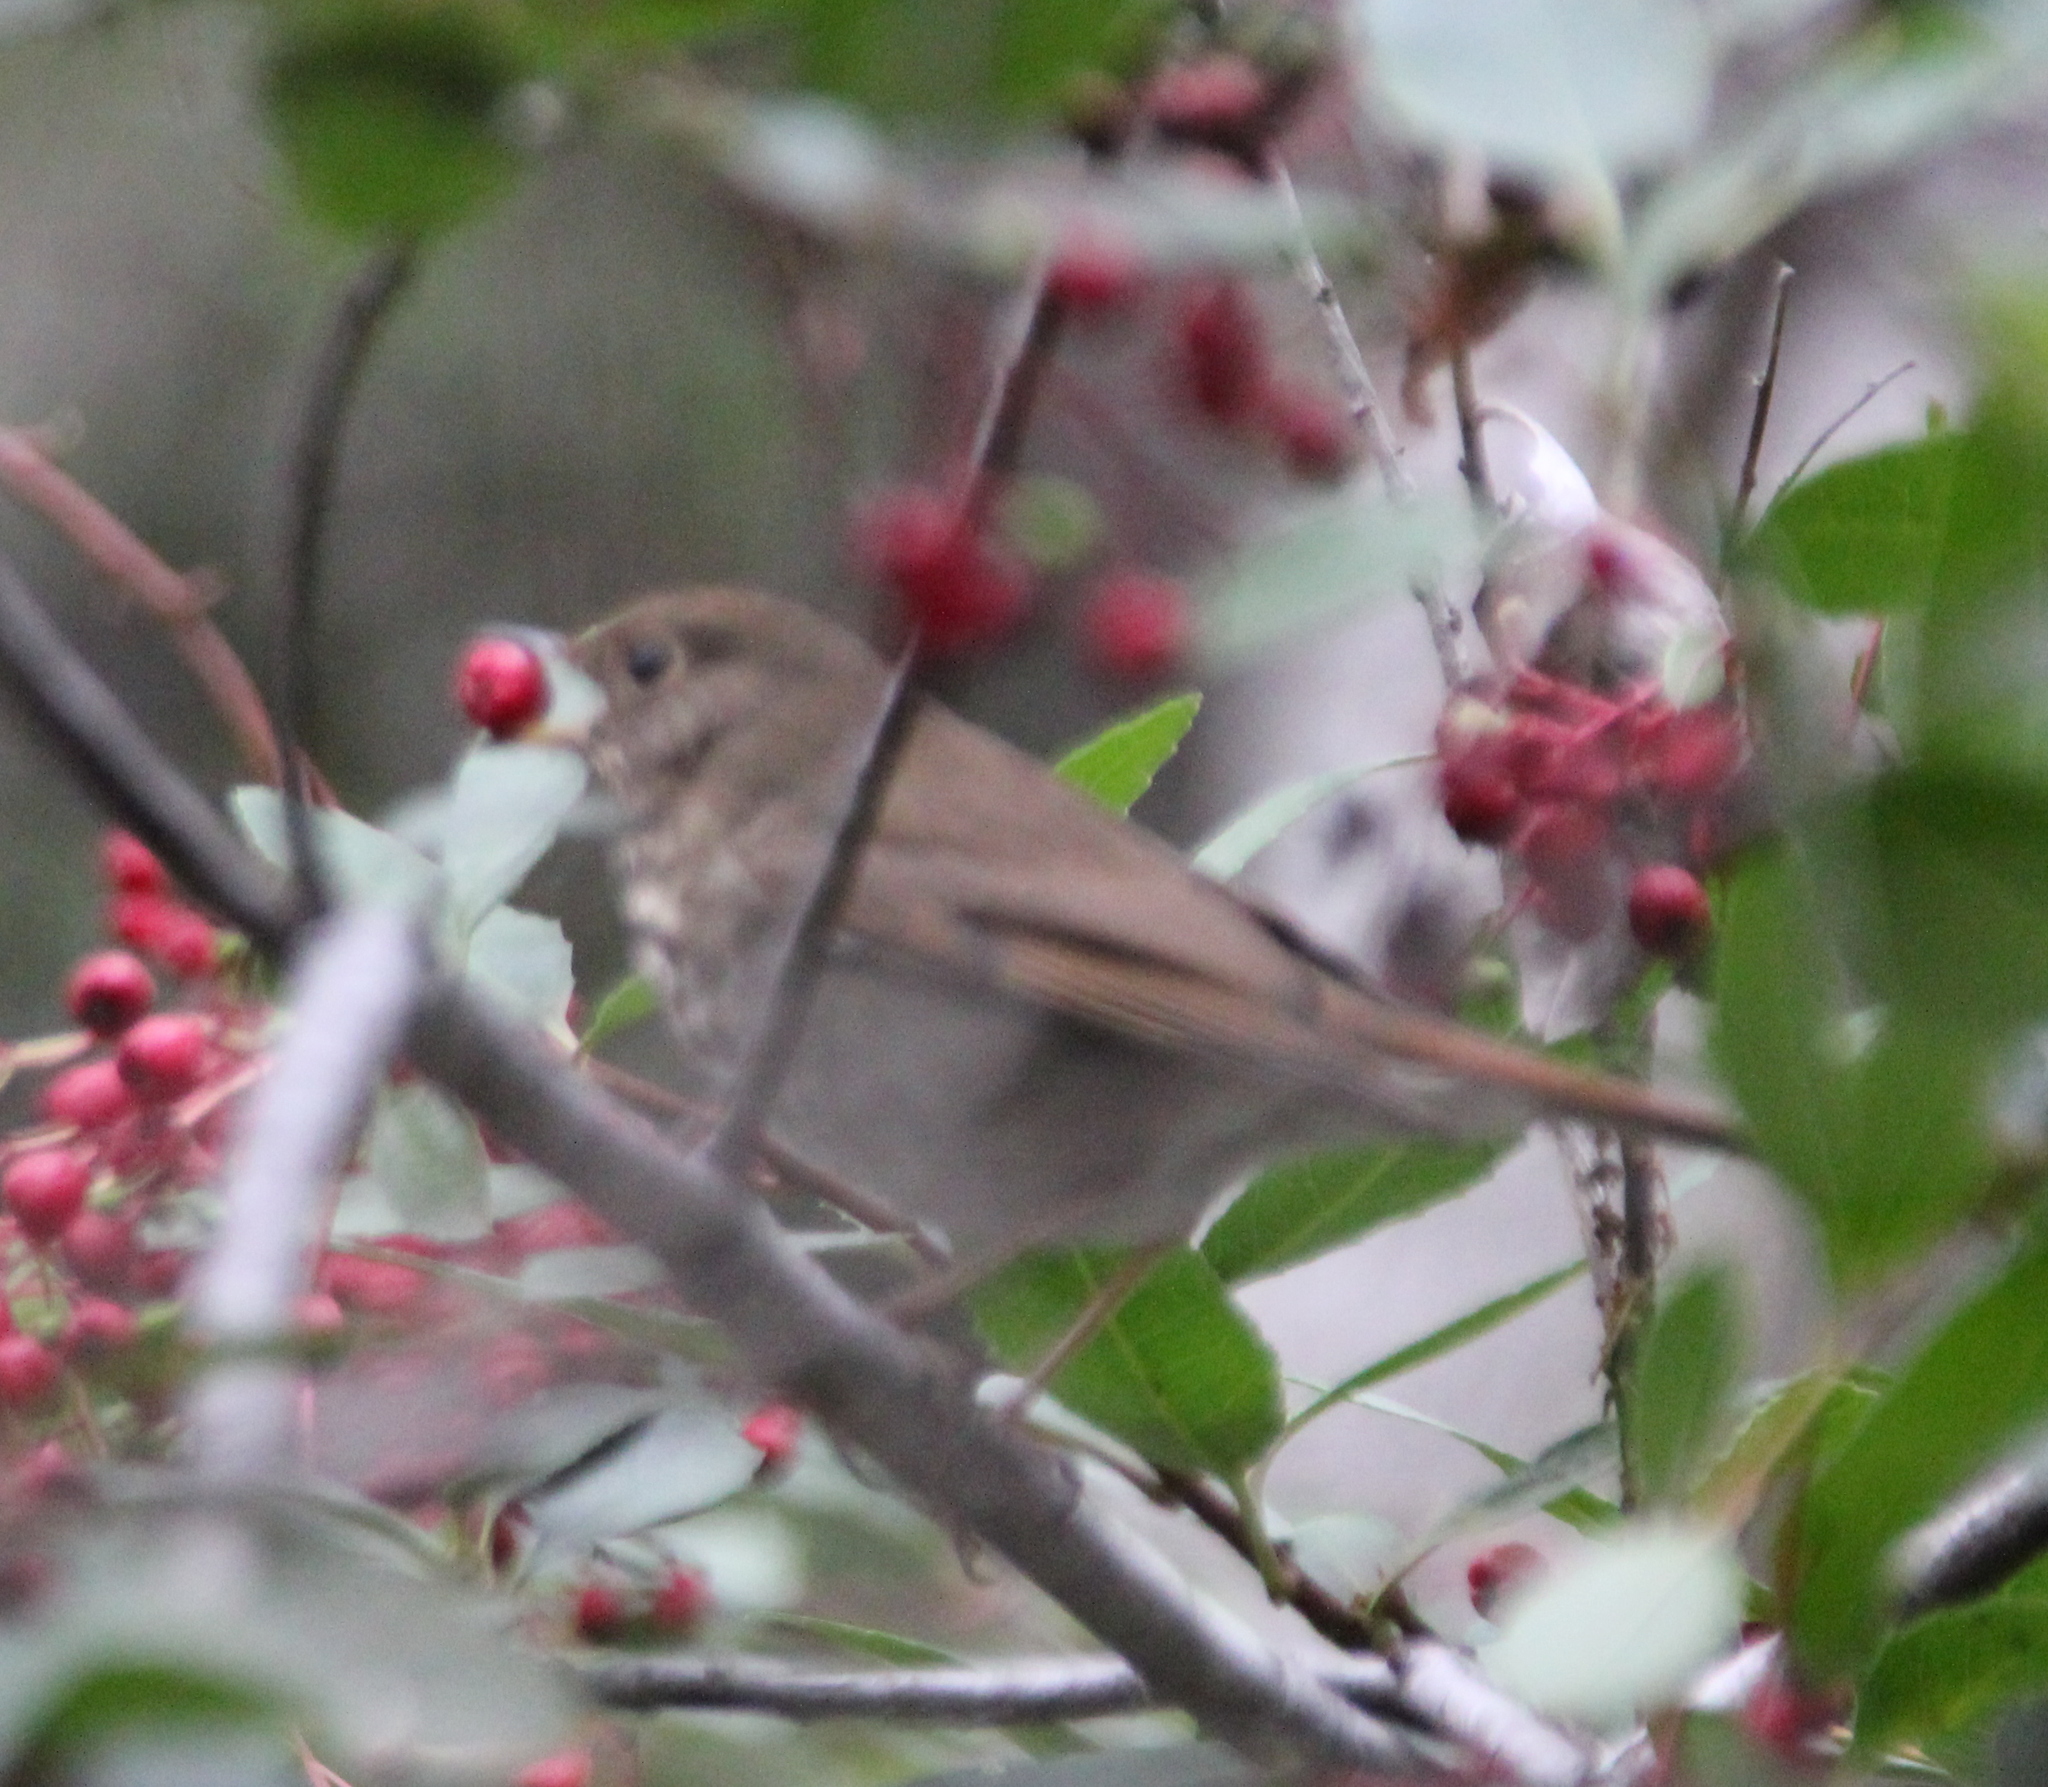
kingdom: Animalia
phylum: Chordata
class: Aves
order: Passeriformes
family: Turdidae
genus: Catharus
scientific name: Catharus guttatus
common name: Hermit thrush
